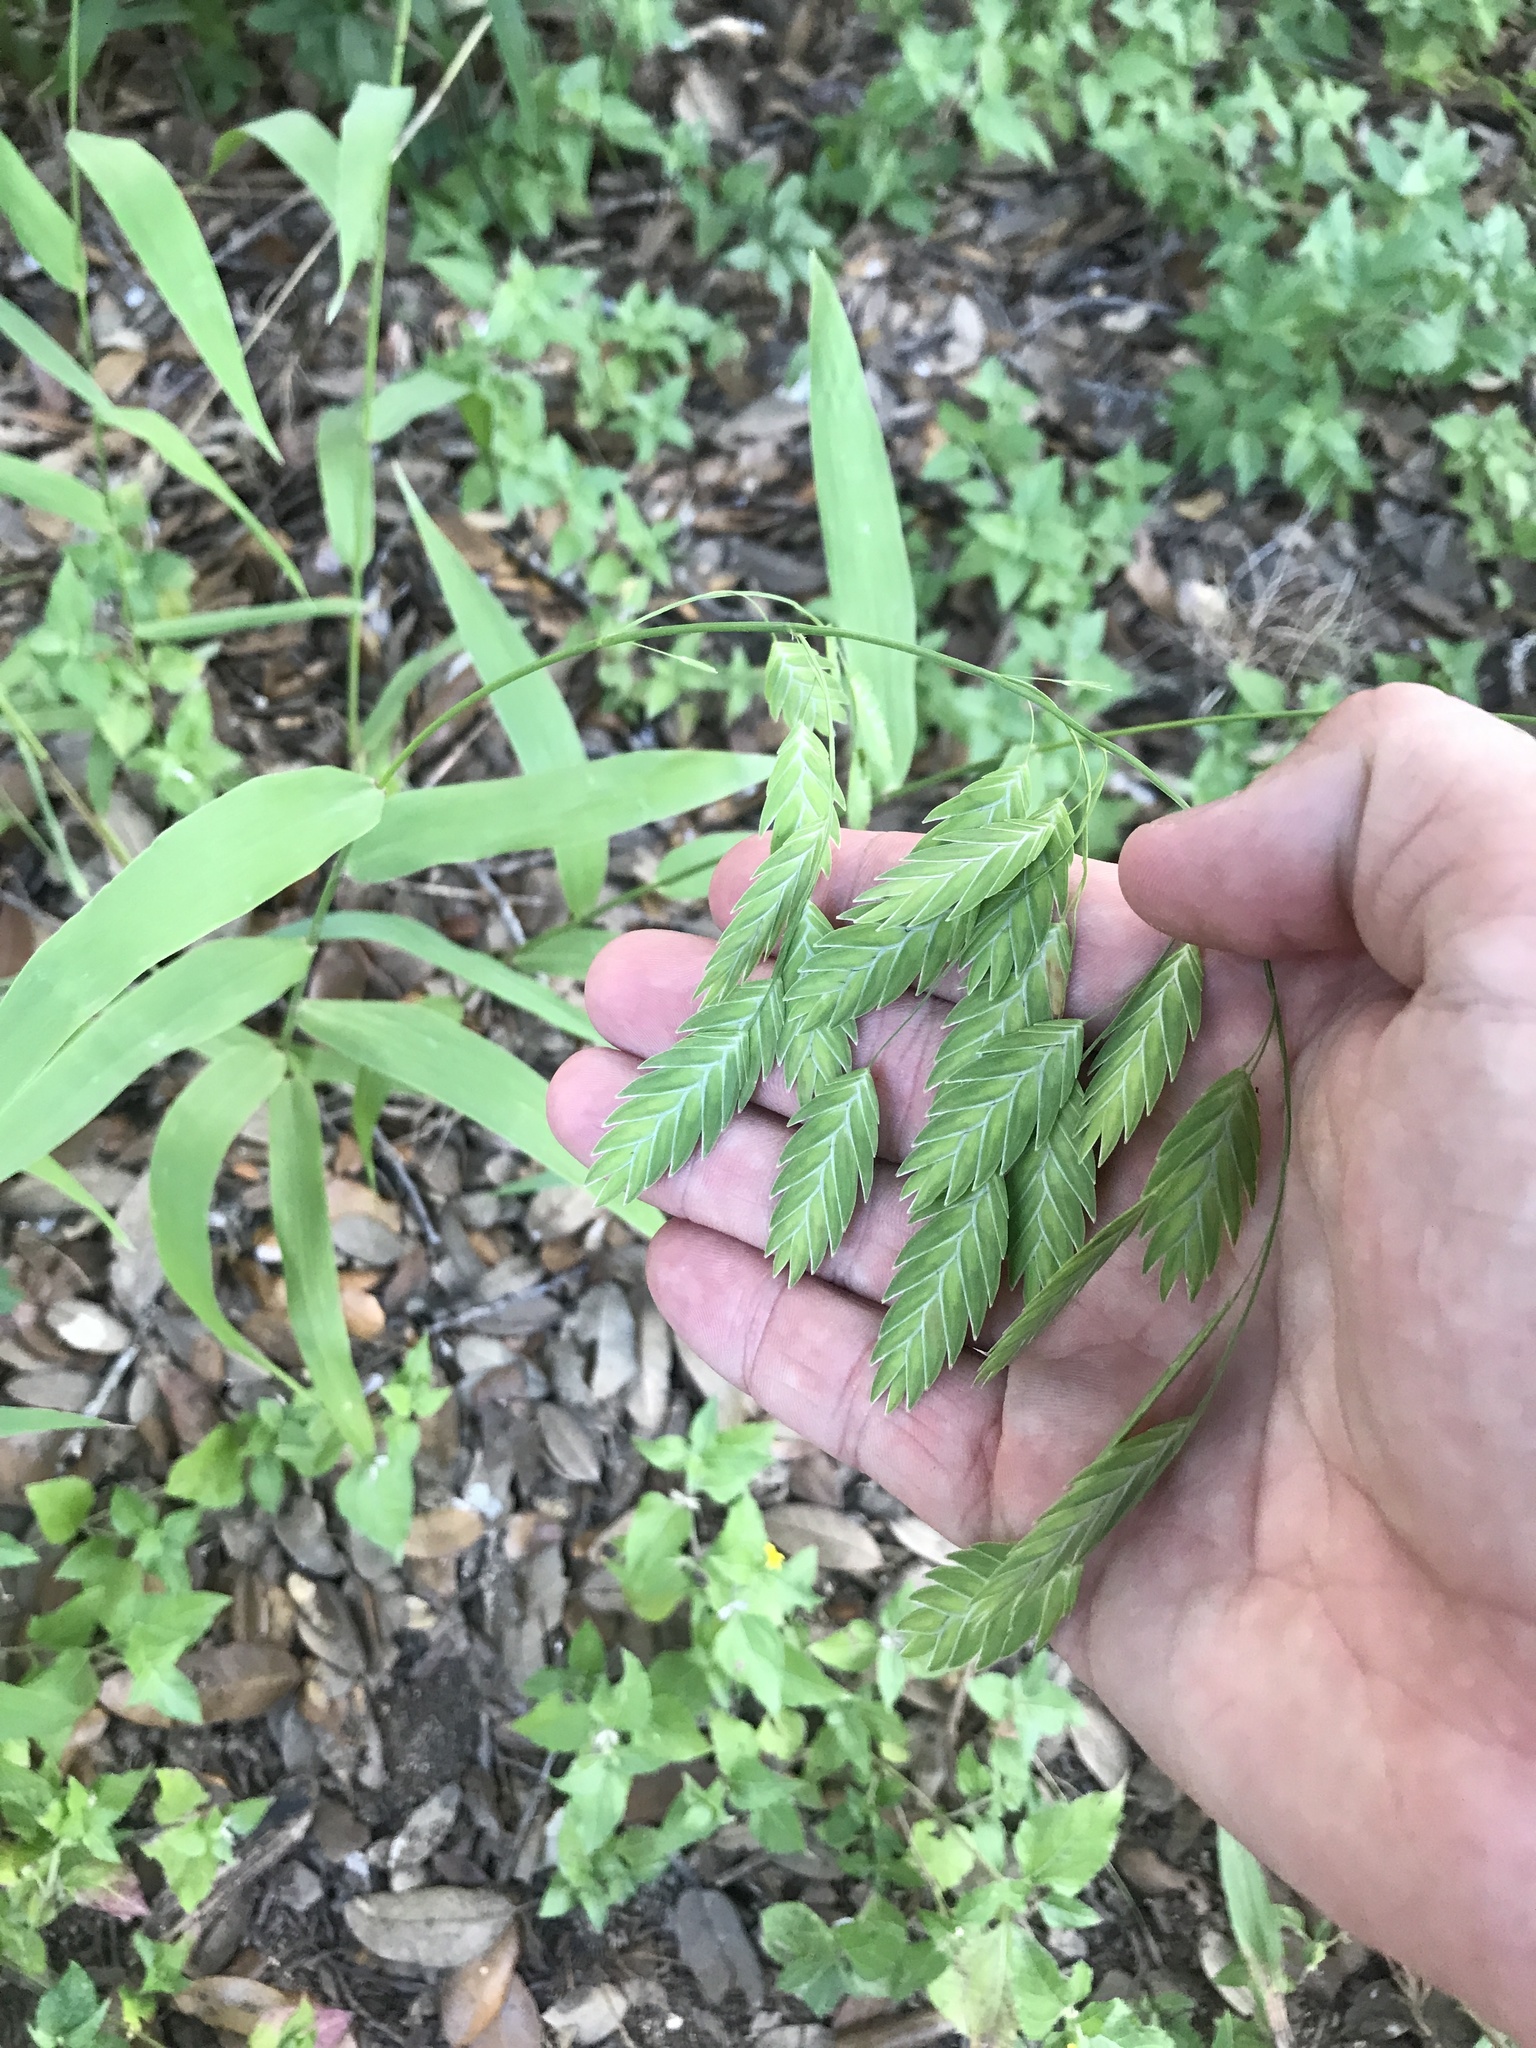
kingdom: Plantae
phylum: Tracheophyta
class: Liliopsida
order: Poales
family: Poaceae
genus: Chasmanthium
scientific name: Chasmanthium latifolium
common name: Broad-leaved chasmanthium
